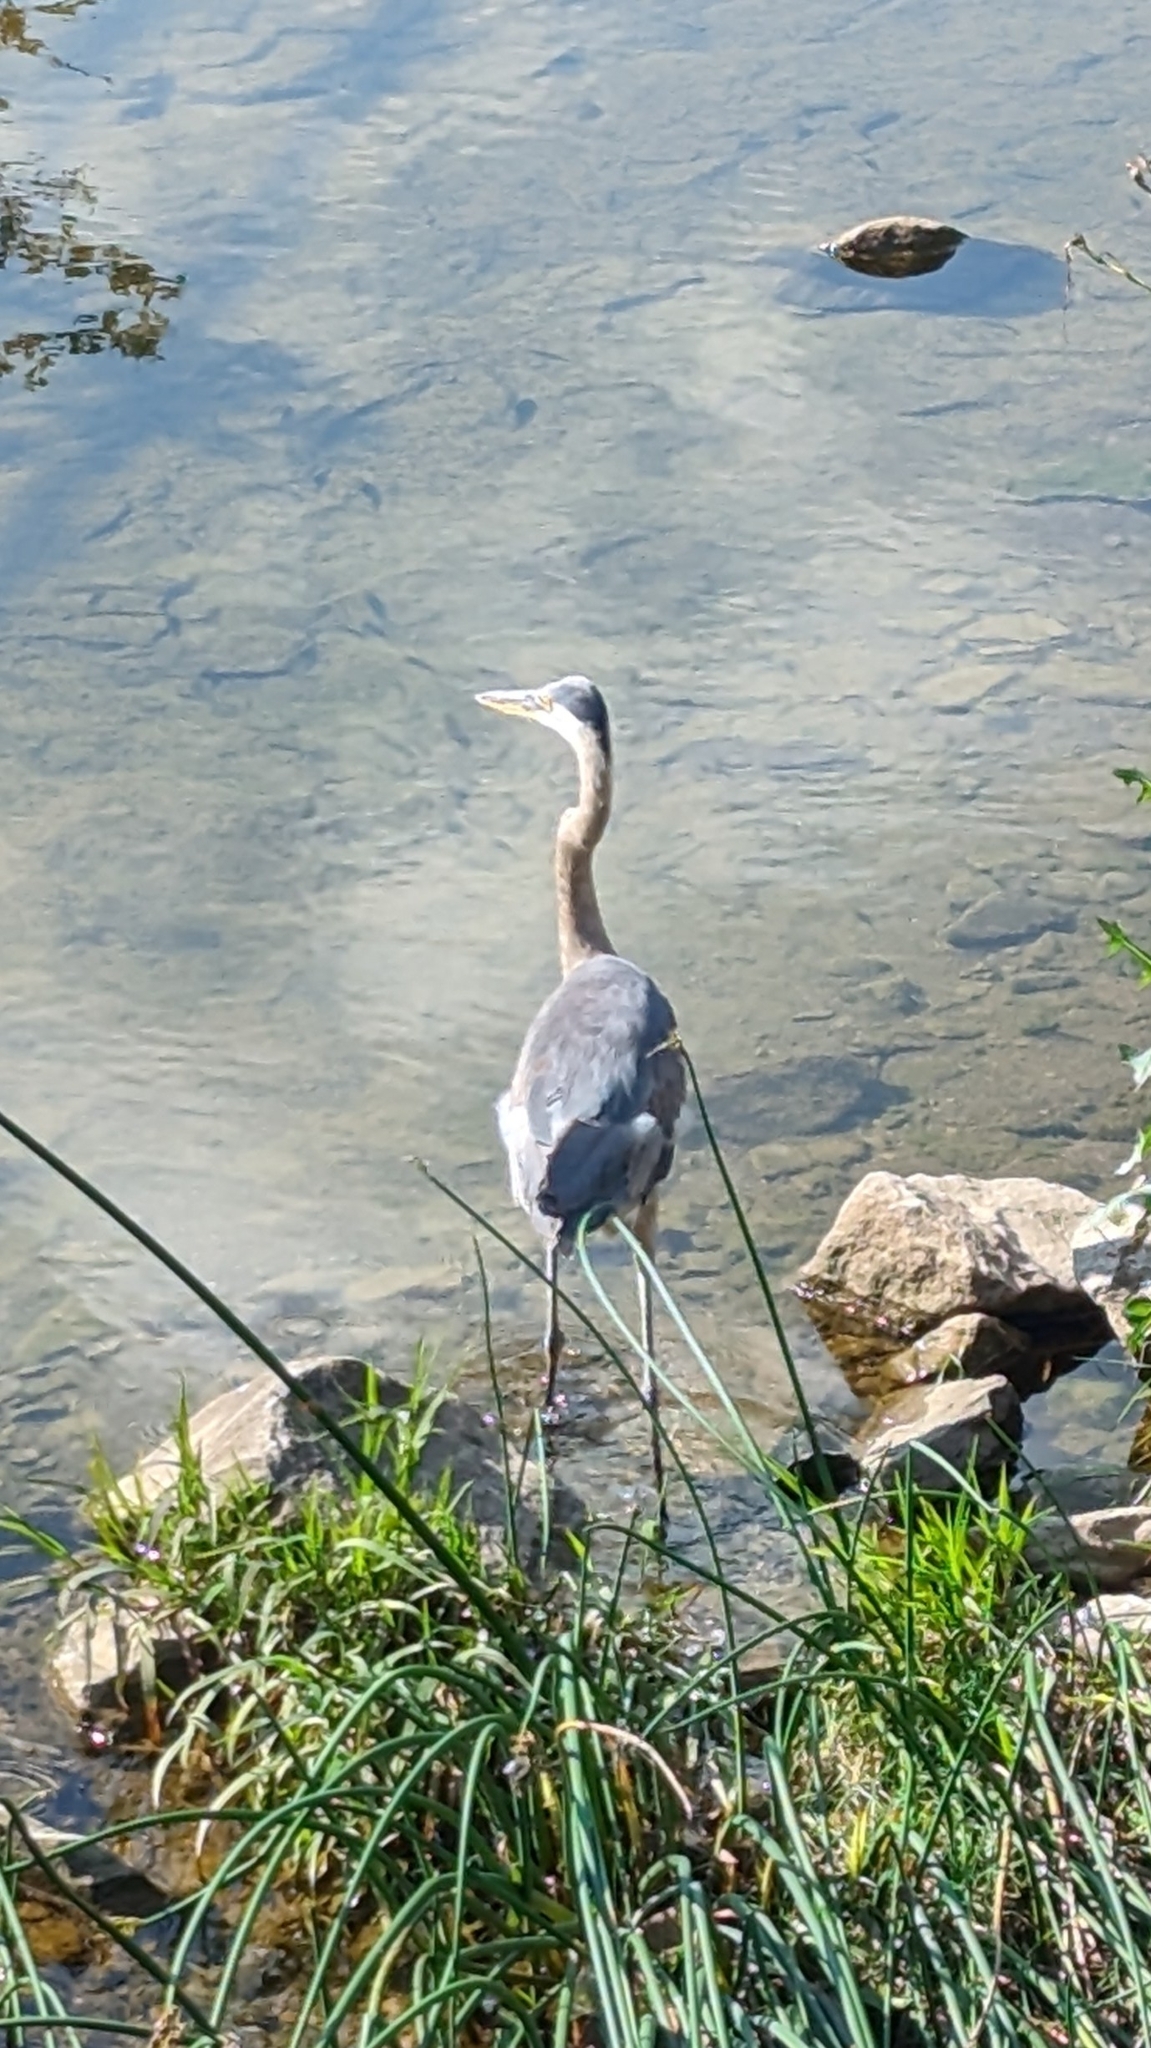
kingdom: Animalia
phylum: Chordata
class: Aves
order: Pelecaniformes
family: Ardeidae
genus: Ardea
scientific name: Ardea herodias
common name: Great blue heron
